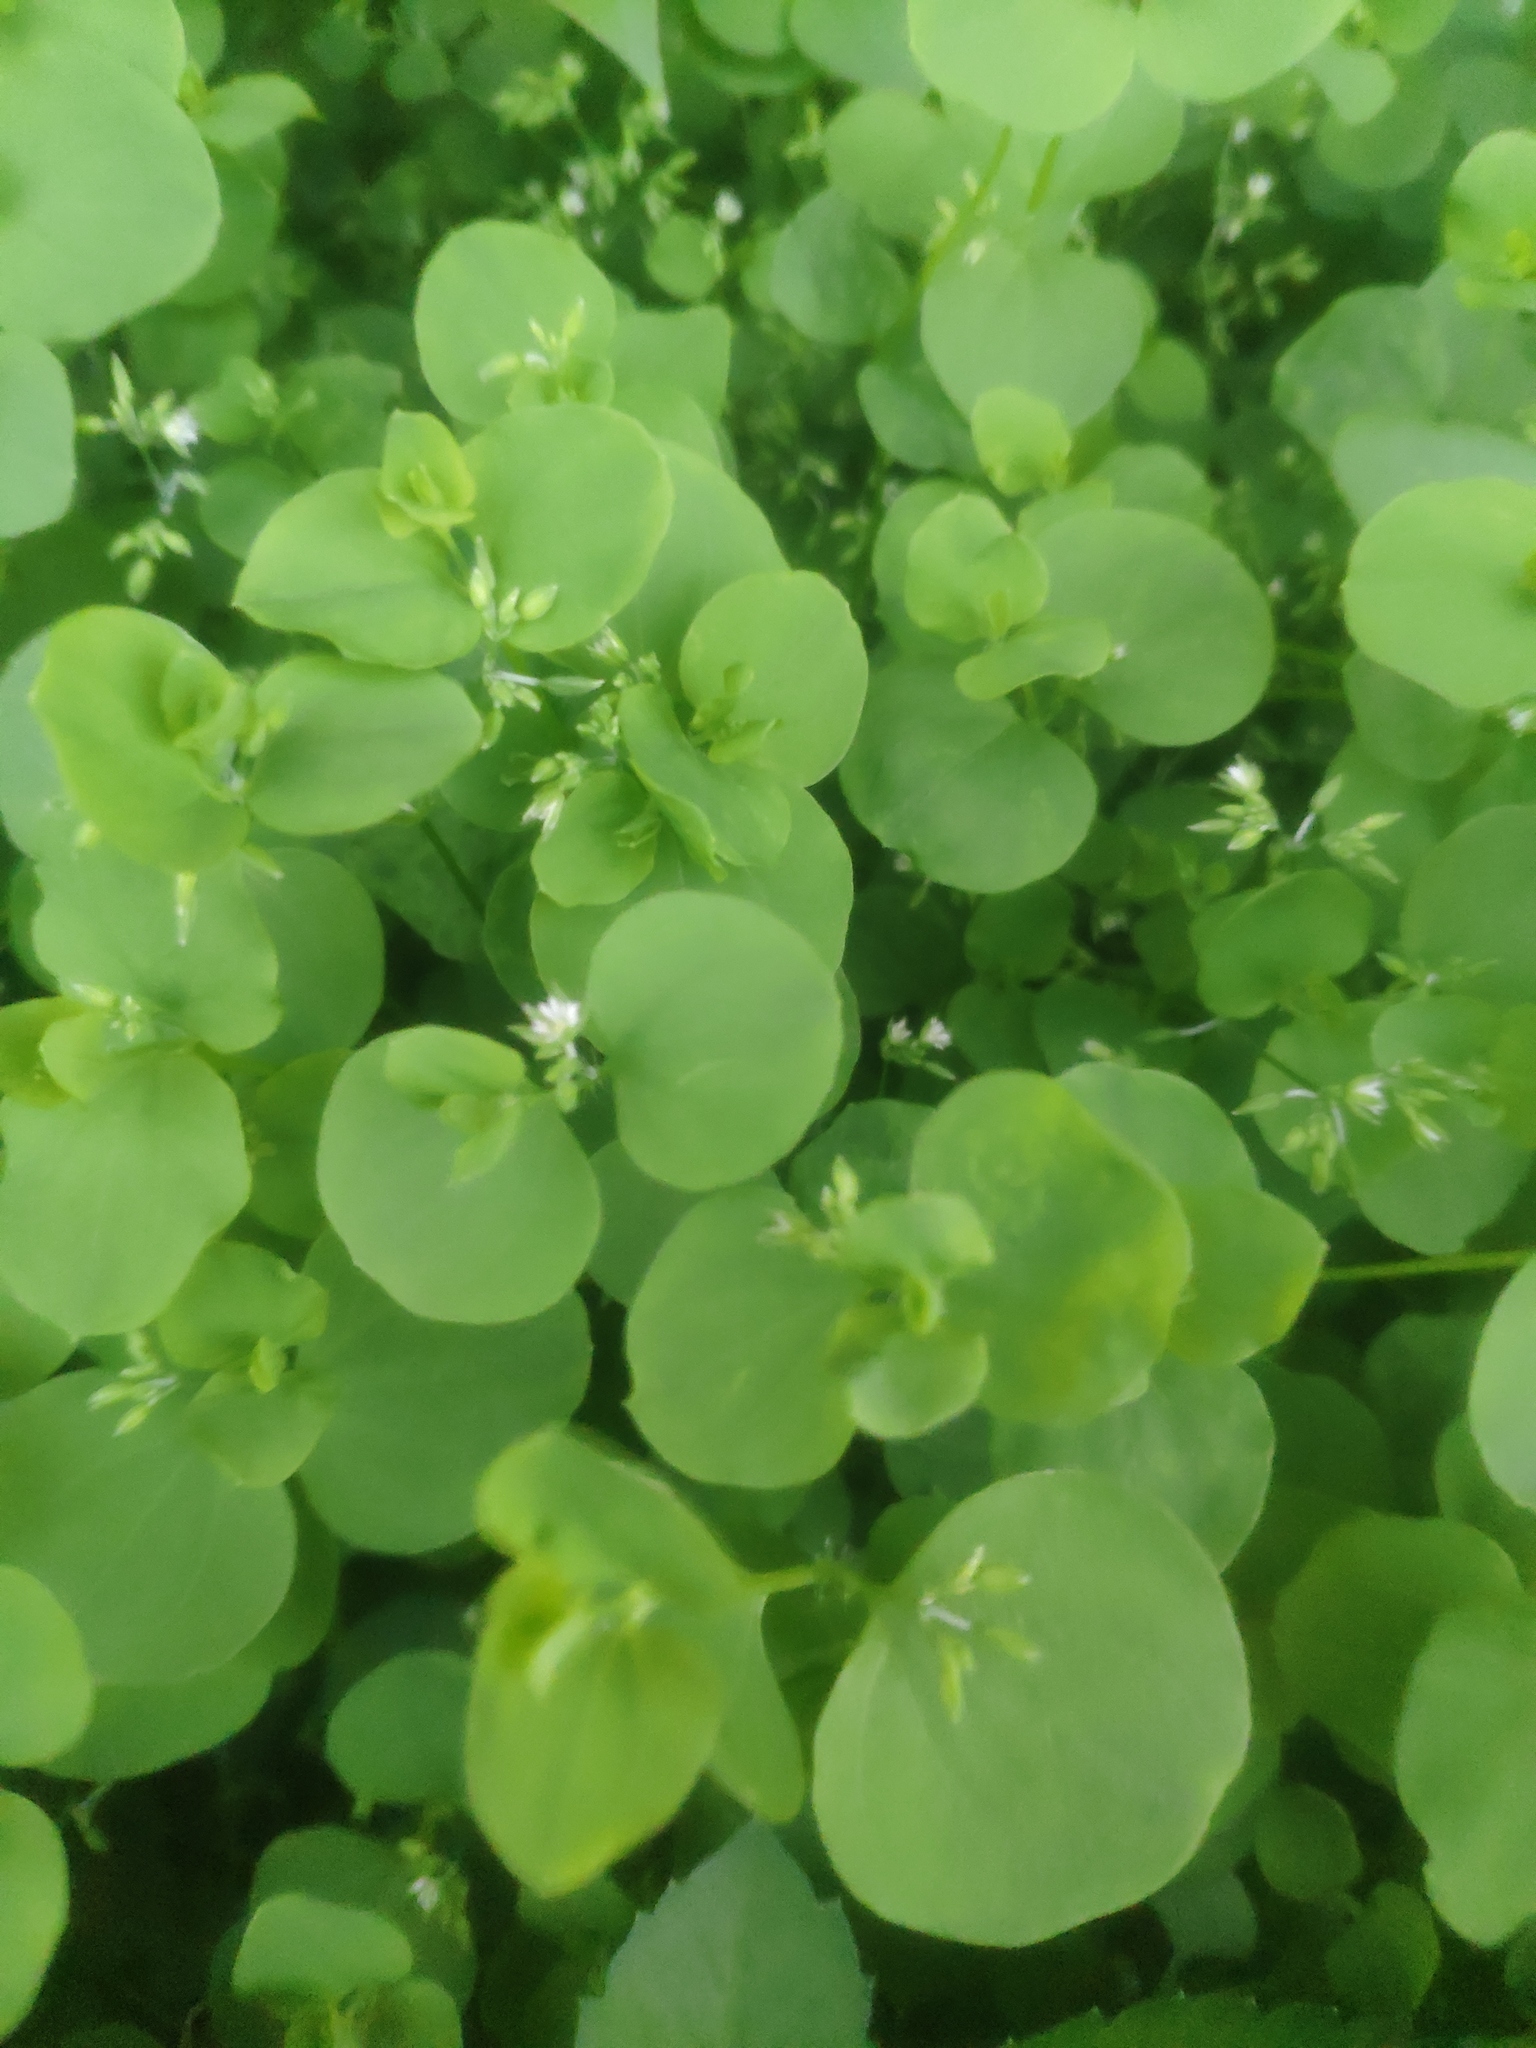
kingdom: Plantae
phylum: Tracheophyta
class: Magnoliopsida
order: Caryophyllales
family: Caryophyllaceae
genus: Drymaria
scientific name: Drymaria cordata
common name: Whitesnow
